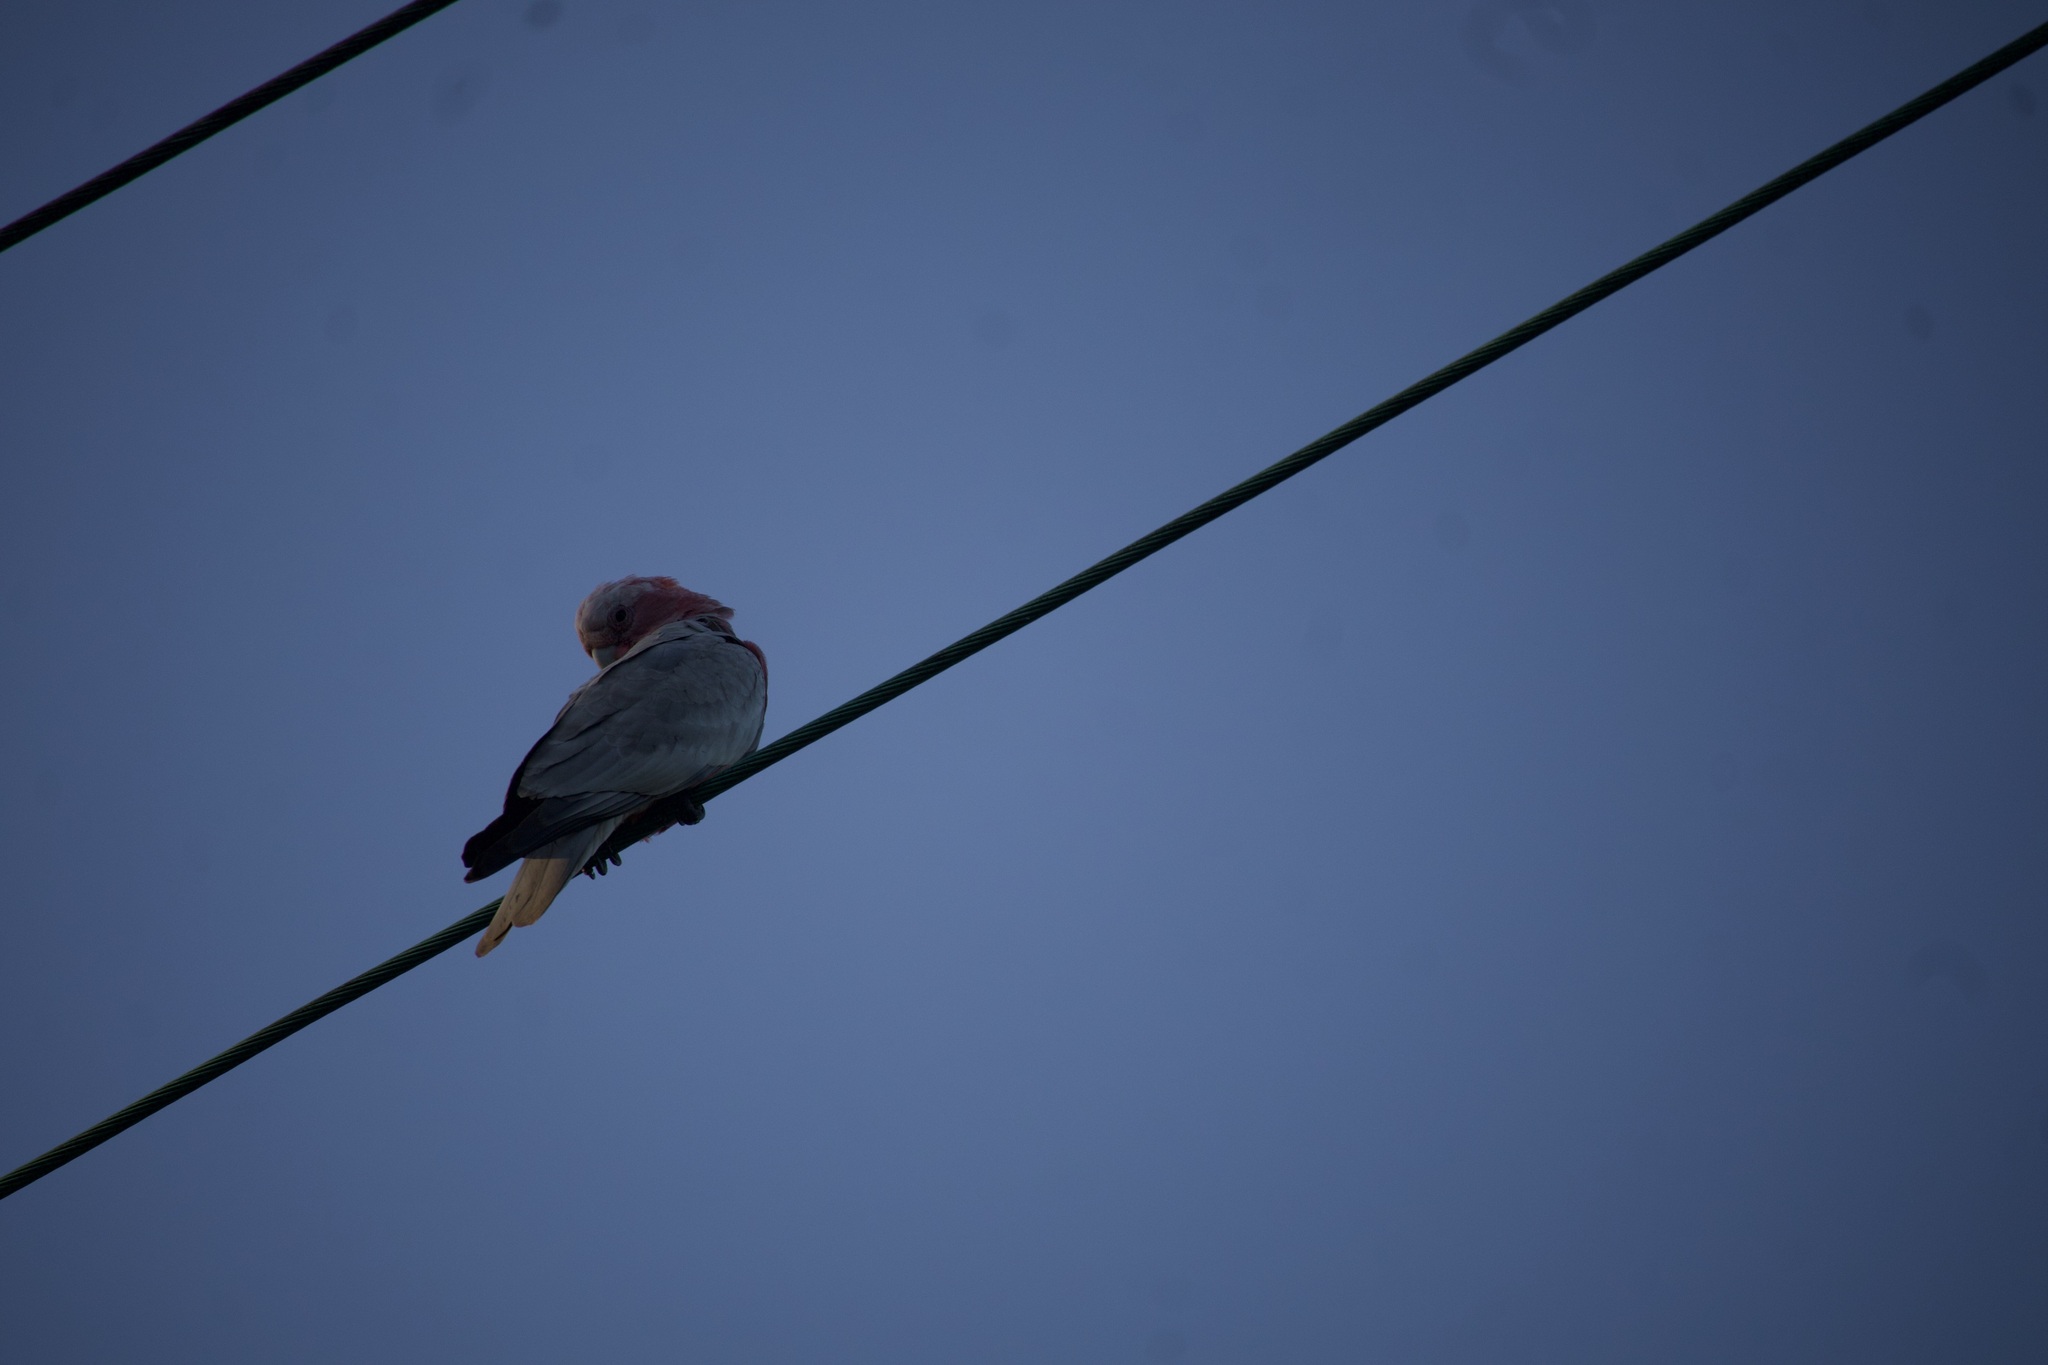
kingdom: Animalia
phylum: Chordata
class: Aves
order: Psittaciformes
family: Psittacidae
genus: Eolophus
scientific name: Eolophus roseicapilla
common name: Galah
